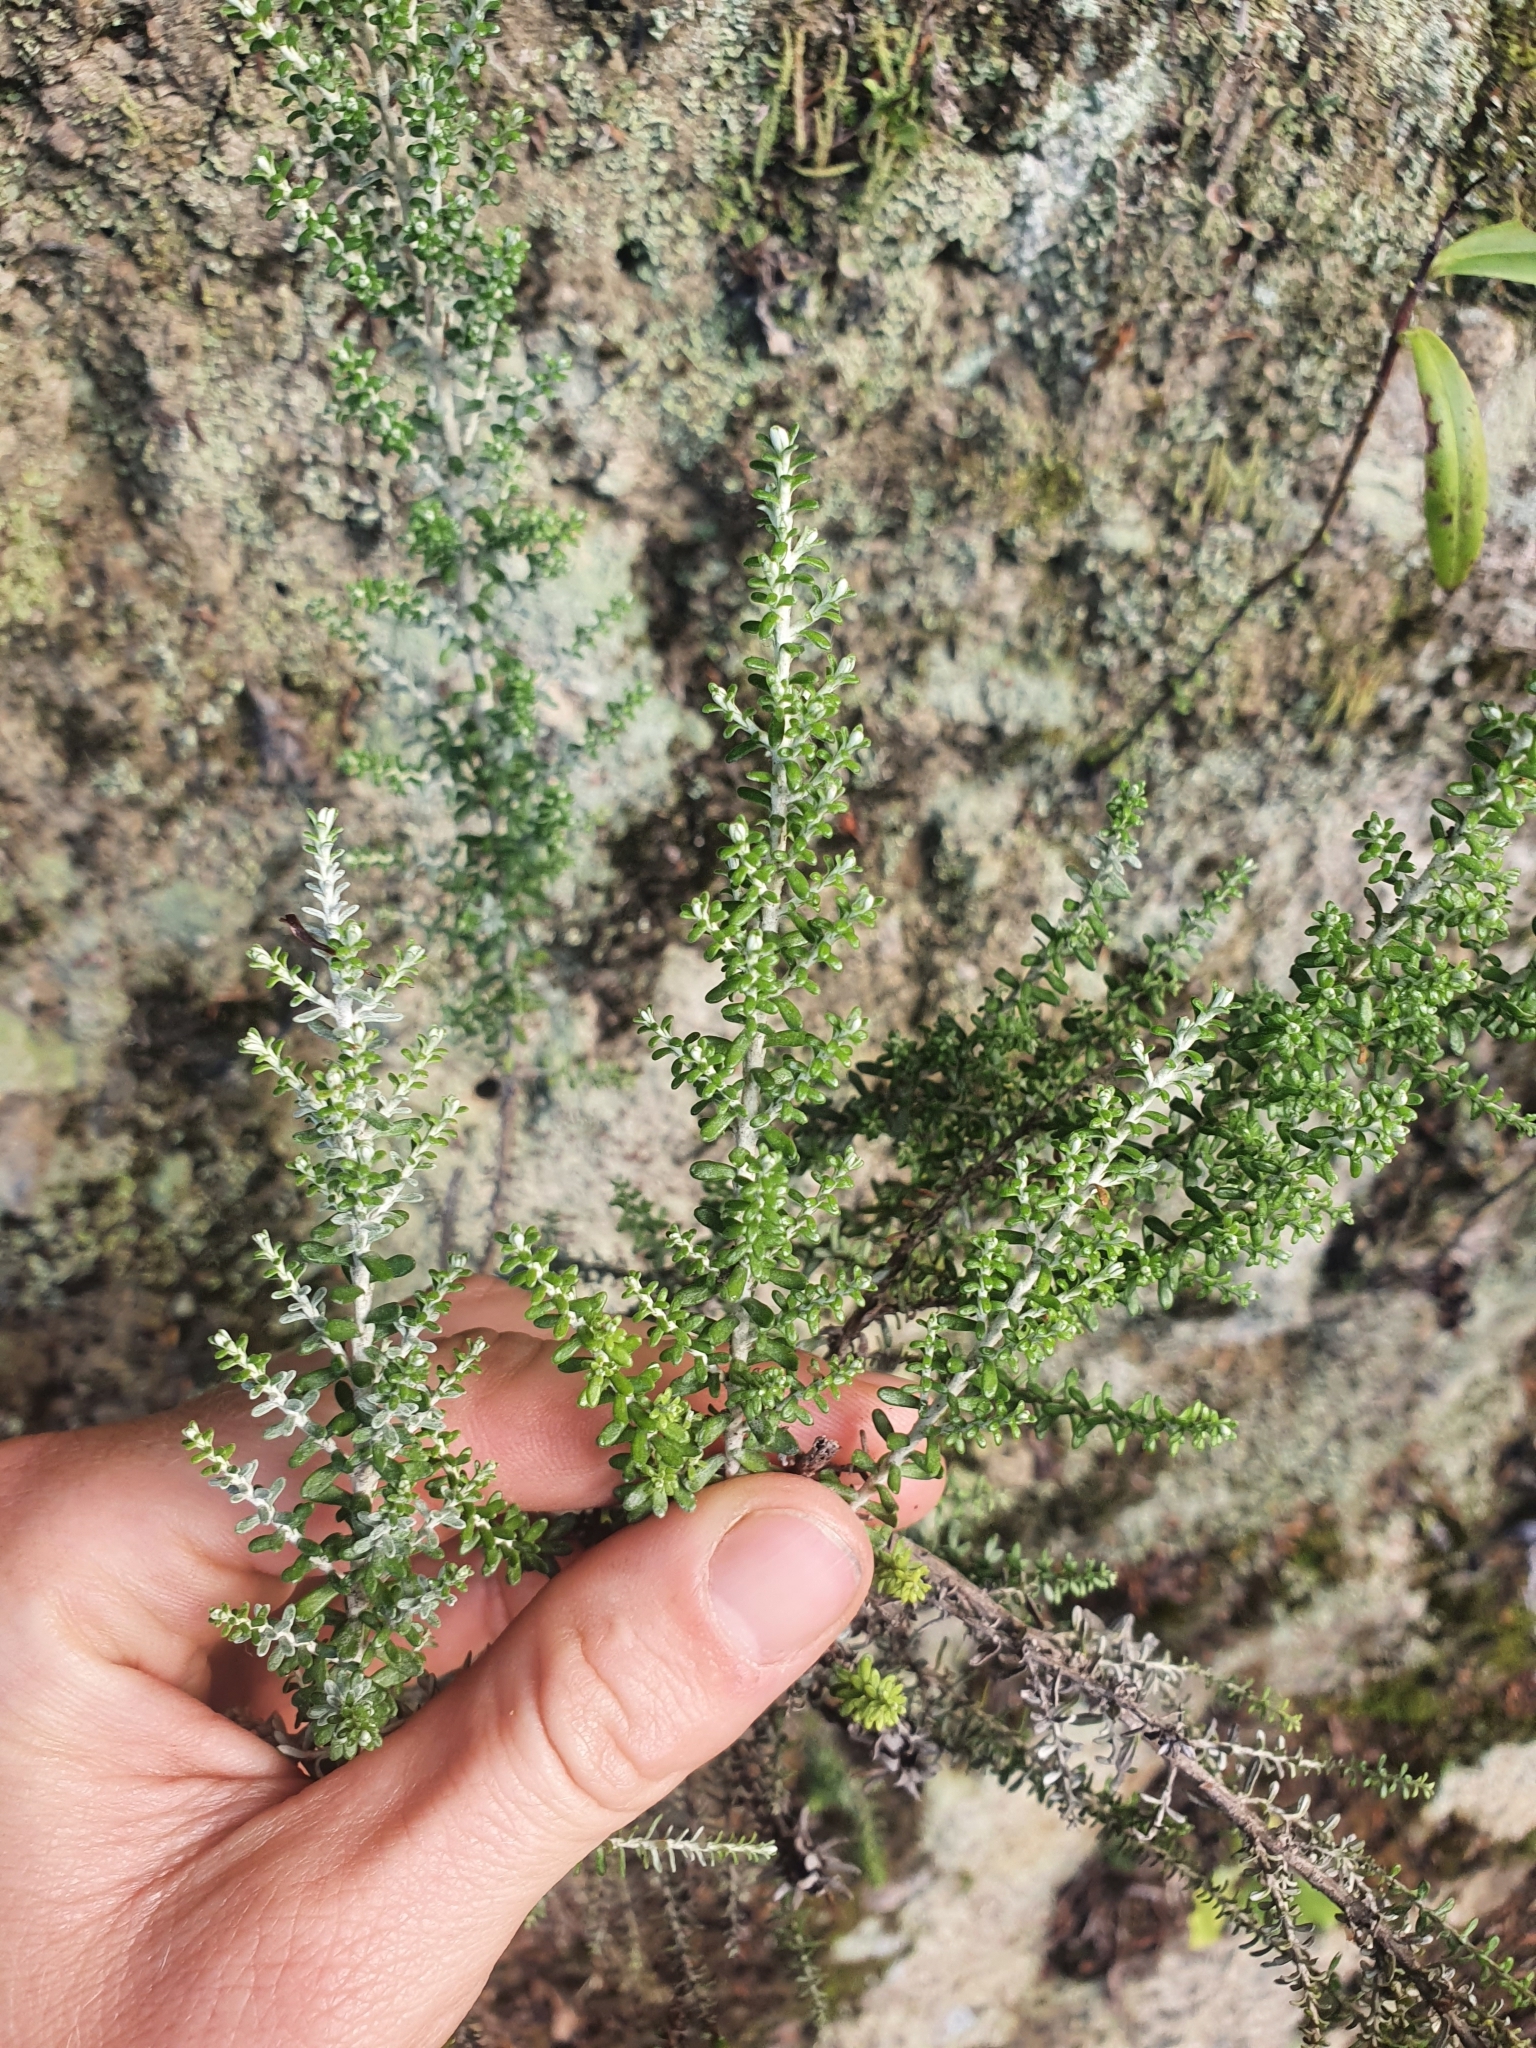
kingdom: Plantae
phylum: Tracheophyta
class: Magnoliopsida
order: Rosales
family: Rhamnaceae
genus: Pomaderris
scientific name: Pomaderris amoena
